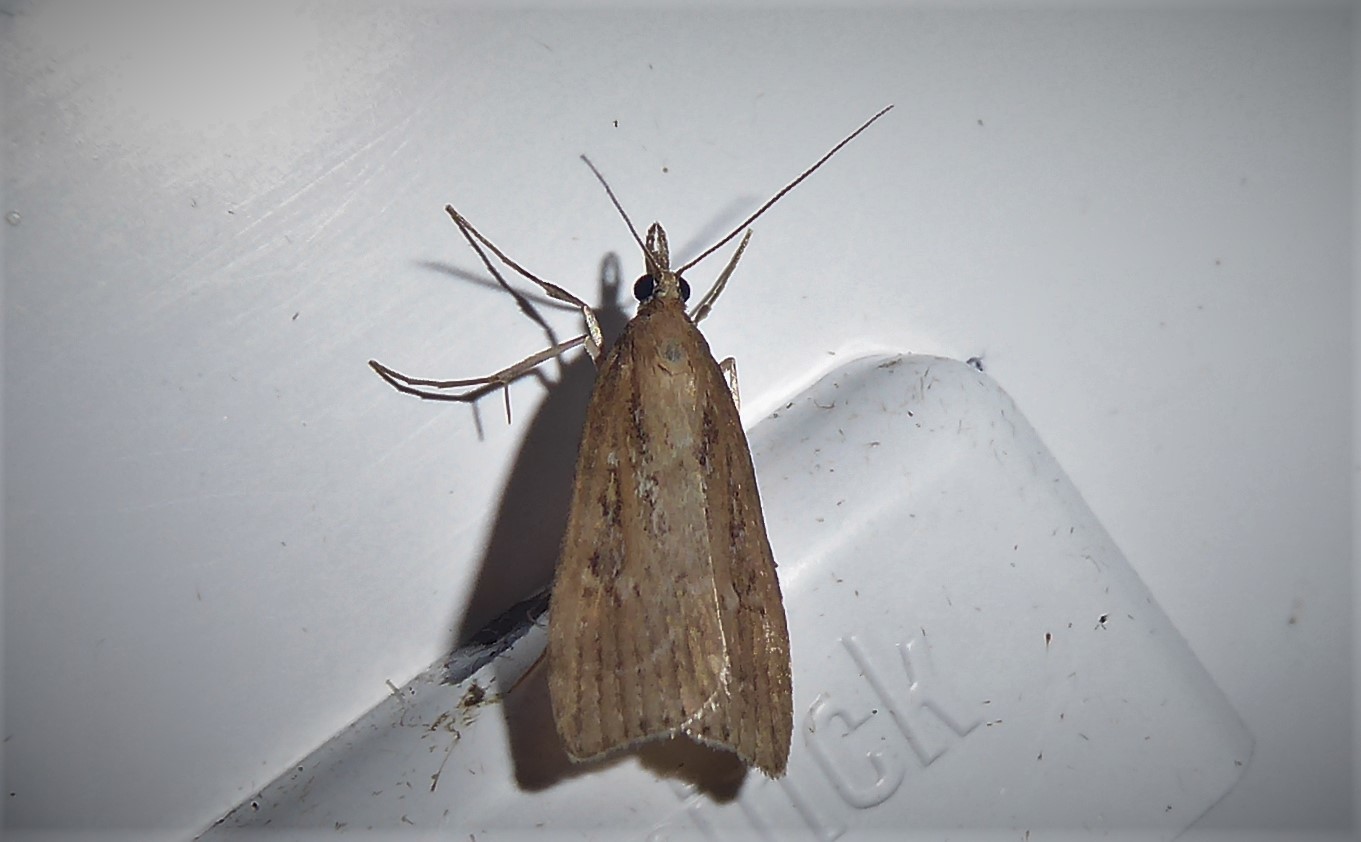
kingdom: Animalia
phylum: Arthropoda
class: Insecta
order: Lepidoptera
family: Crambidae
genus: Eudonia
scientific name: Eudonia octophora
